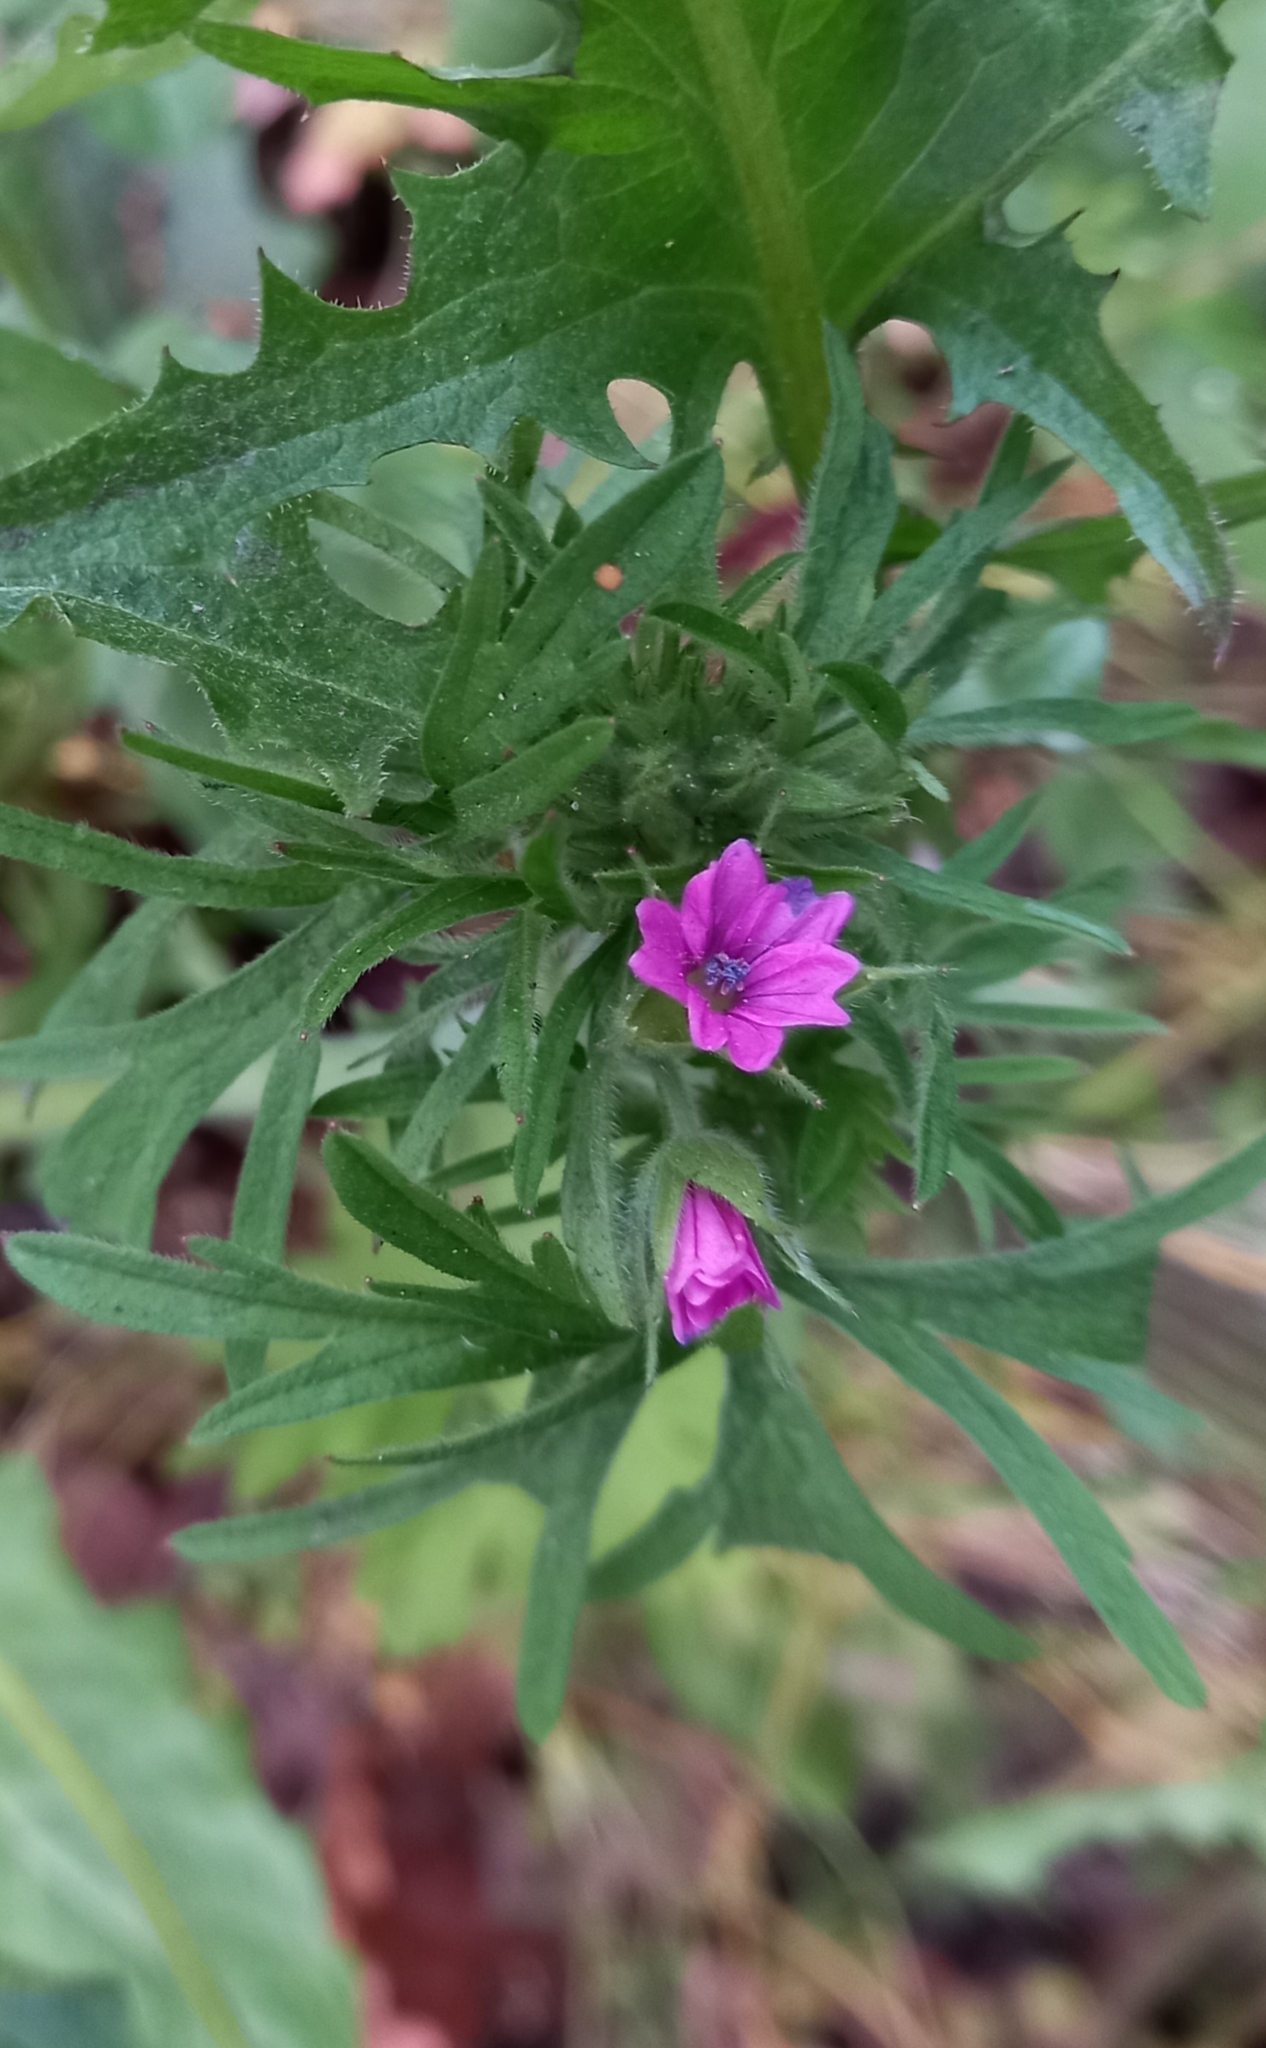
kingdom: Plantae
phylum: Tracheophyta
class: Magnoliopsida
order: Geraniales
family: Geraniaceae
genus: Geranium
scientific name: Geranium dissectum
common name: Cut-leaved crane's-bill
